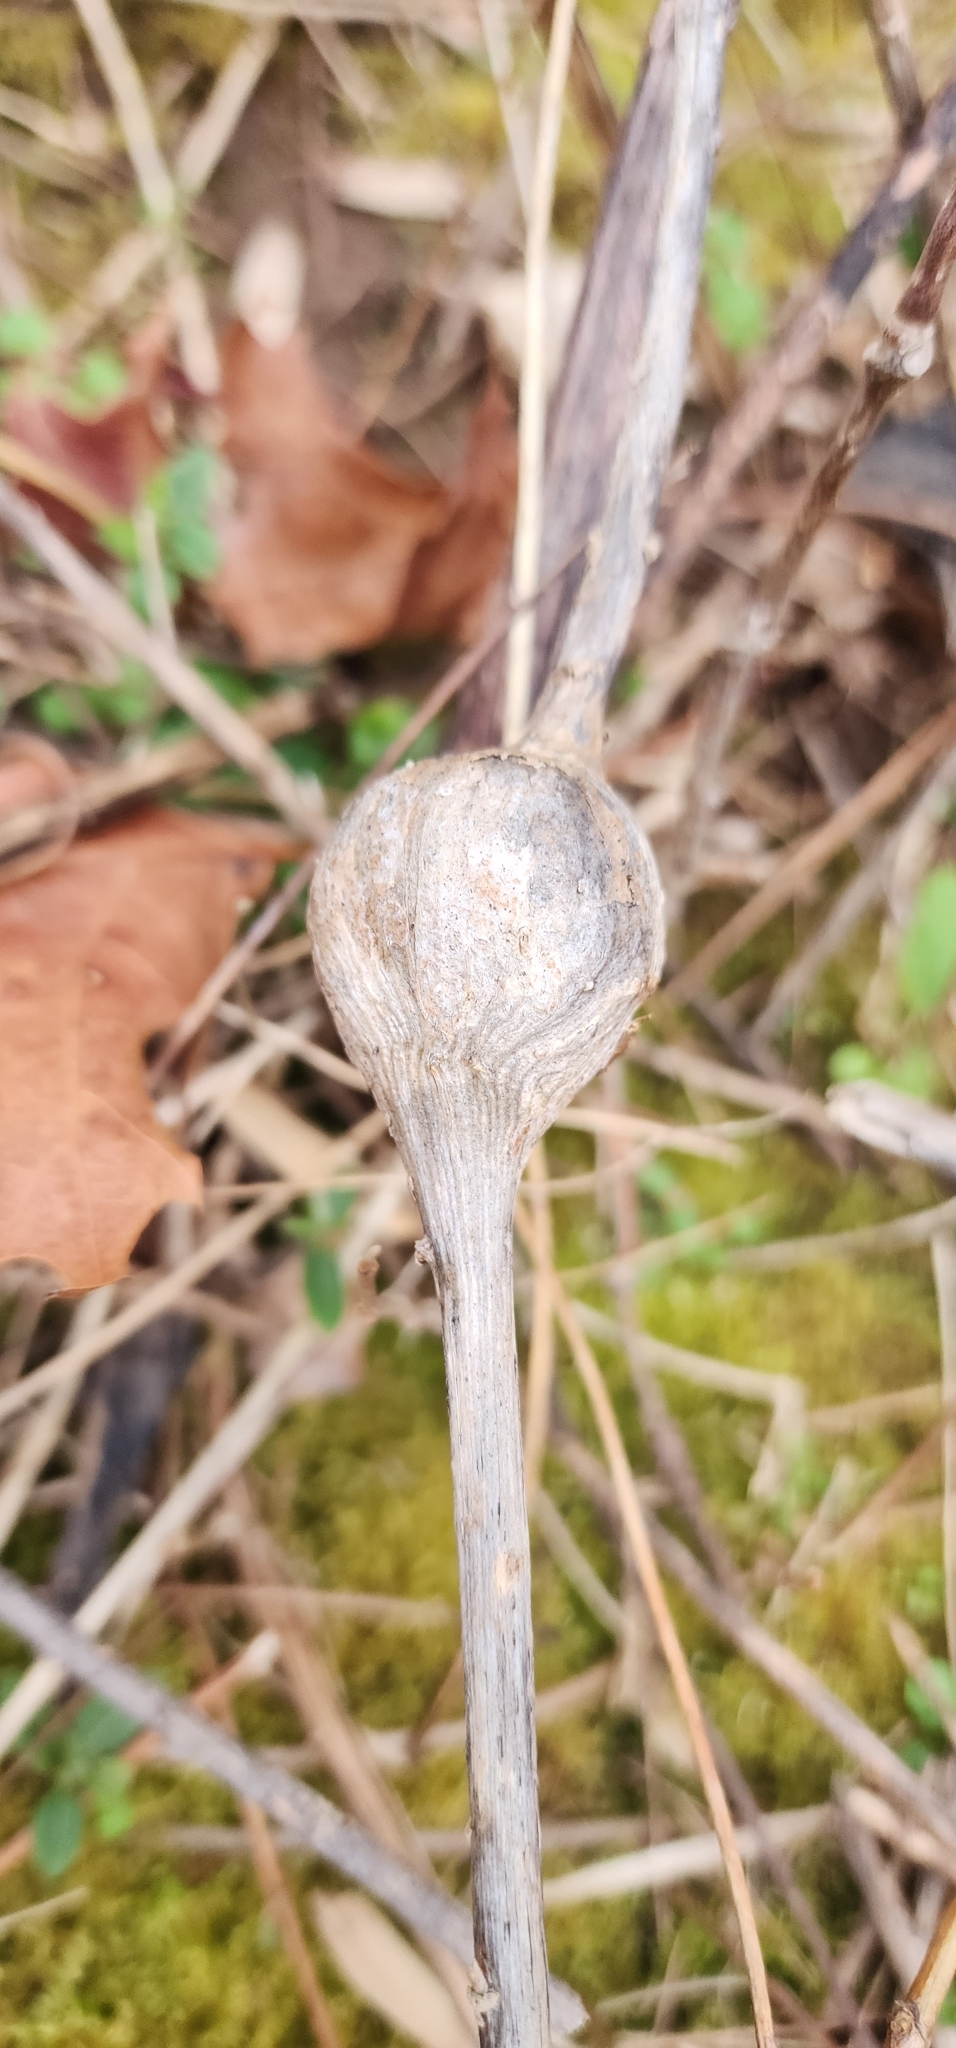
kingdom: Animalia
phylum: Arthropoda
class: Insecta
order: Diptera
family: Tephritidae
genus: Eurosta
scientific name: Eurosta solidaginis
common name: Goldenrod gall fly
